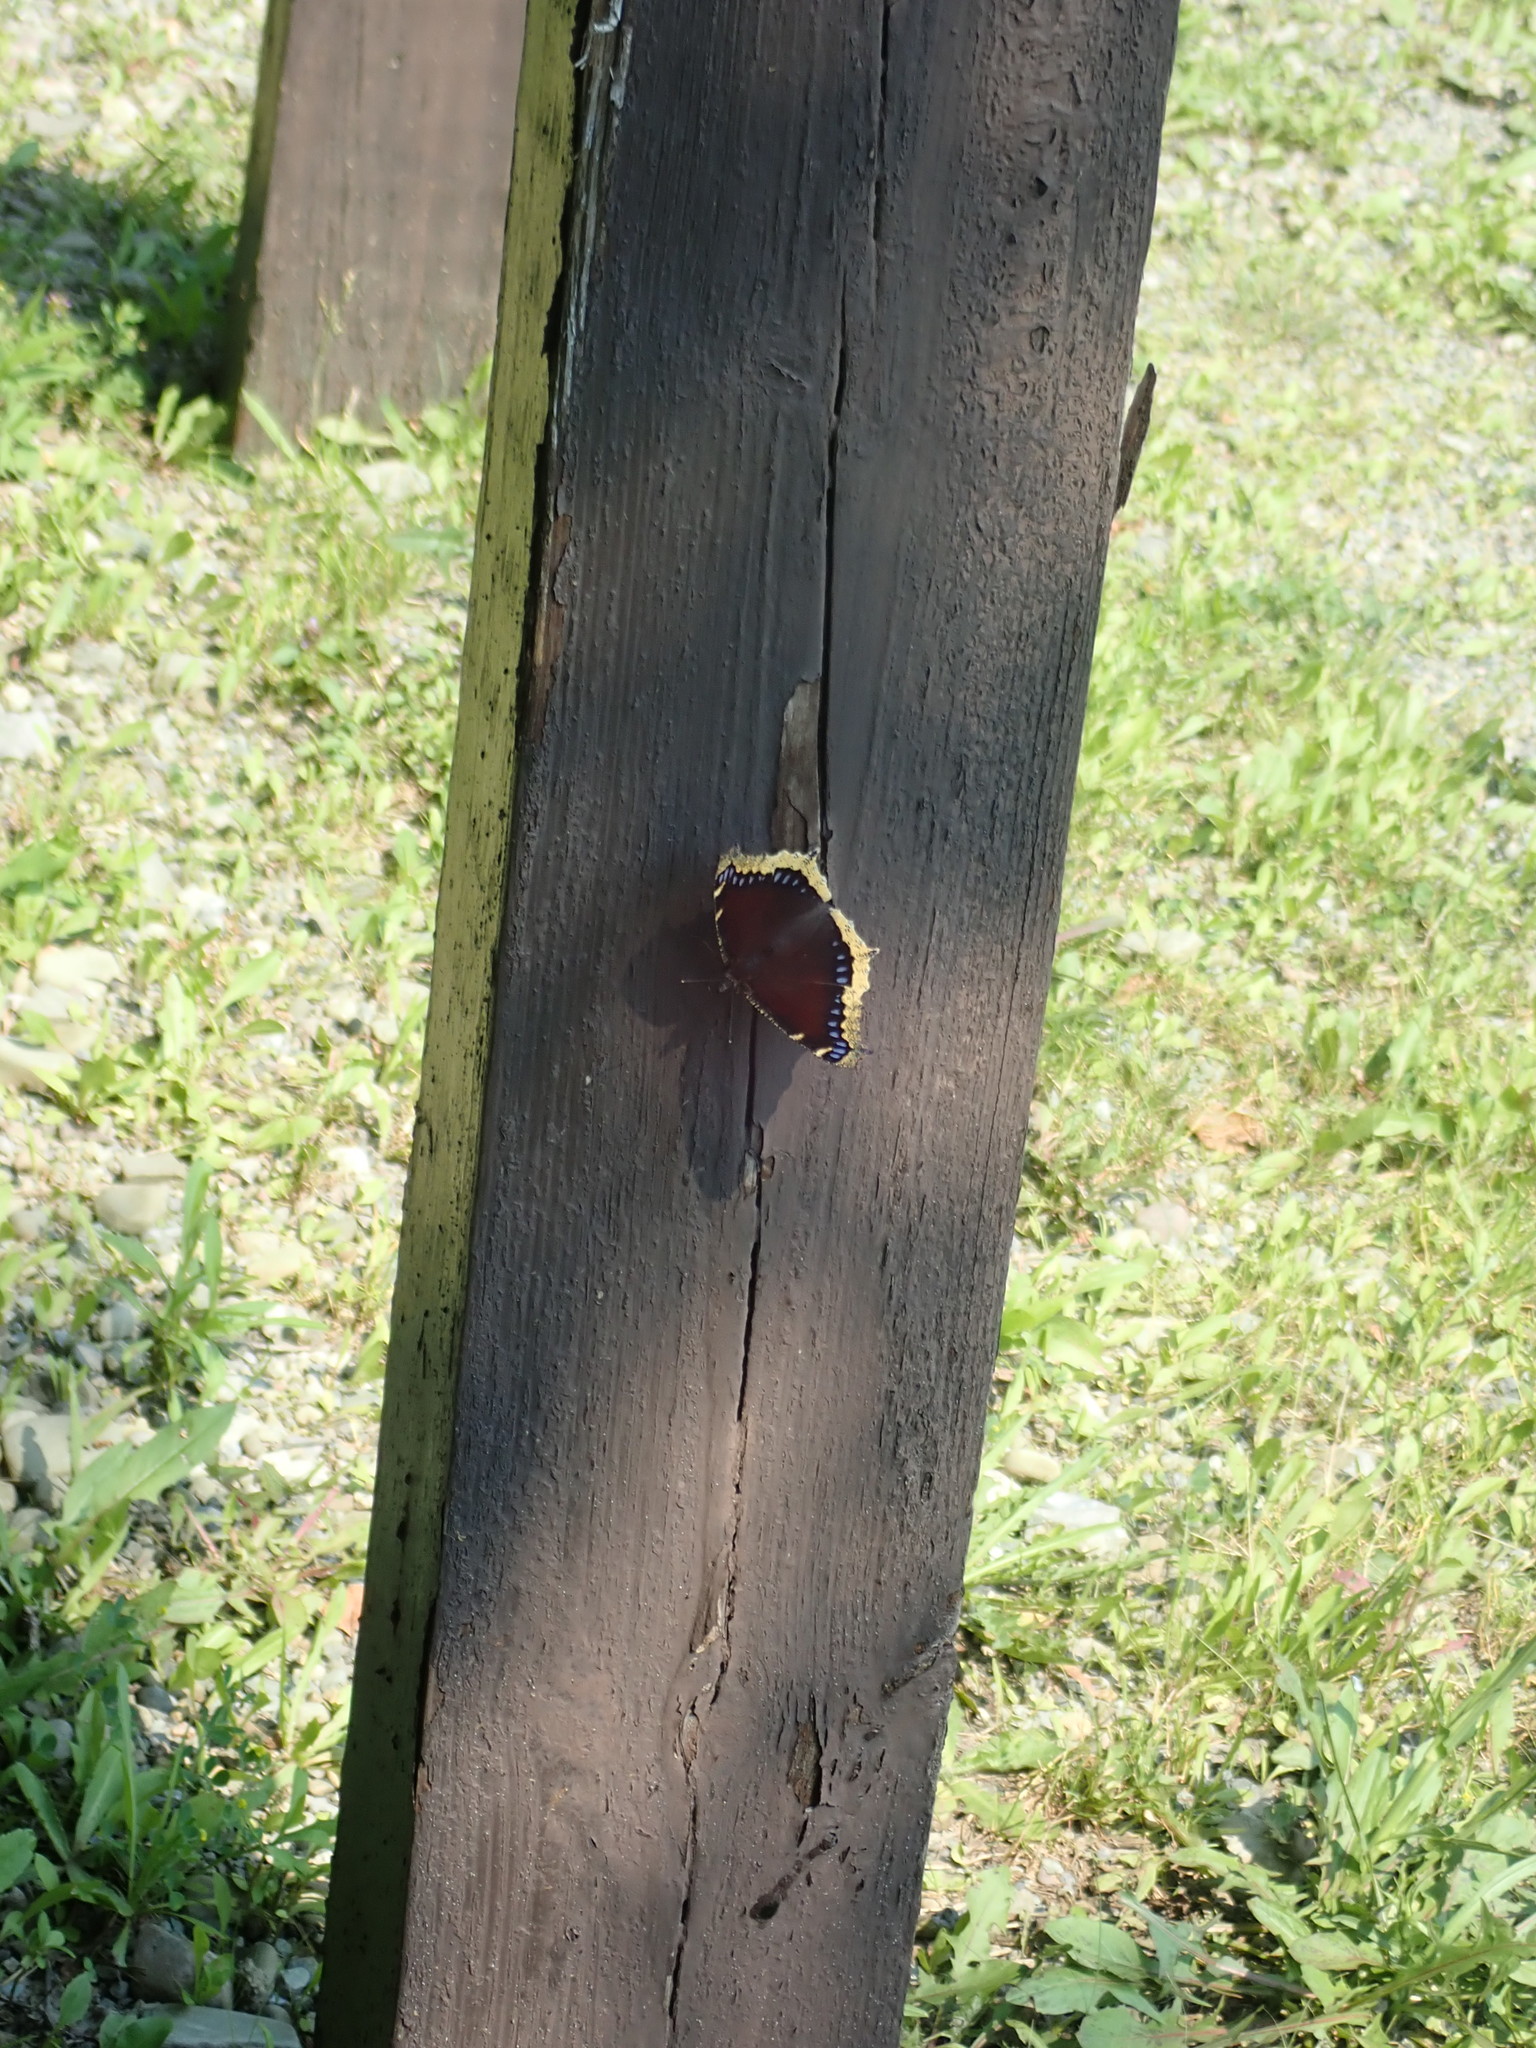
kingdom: Animalia
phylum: Arthropoda
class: Insecta
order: Lepidoptera
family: Nymphalidae
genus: Nymphalis
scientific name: Nymphalis antiopa
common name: Camberwell beauty
